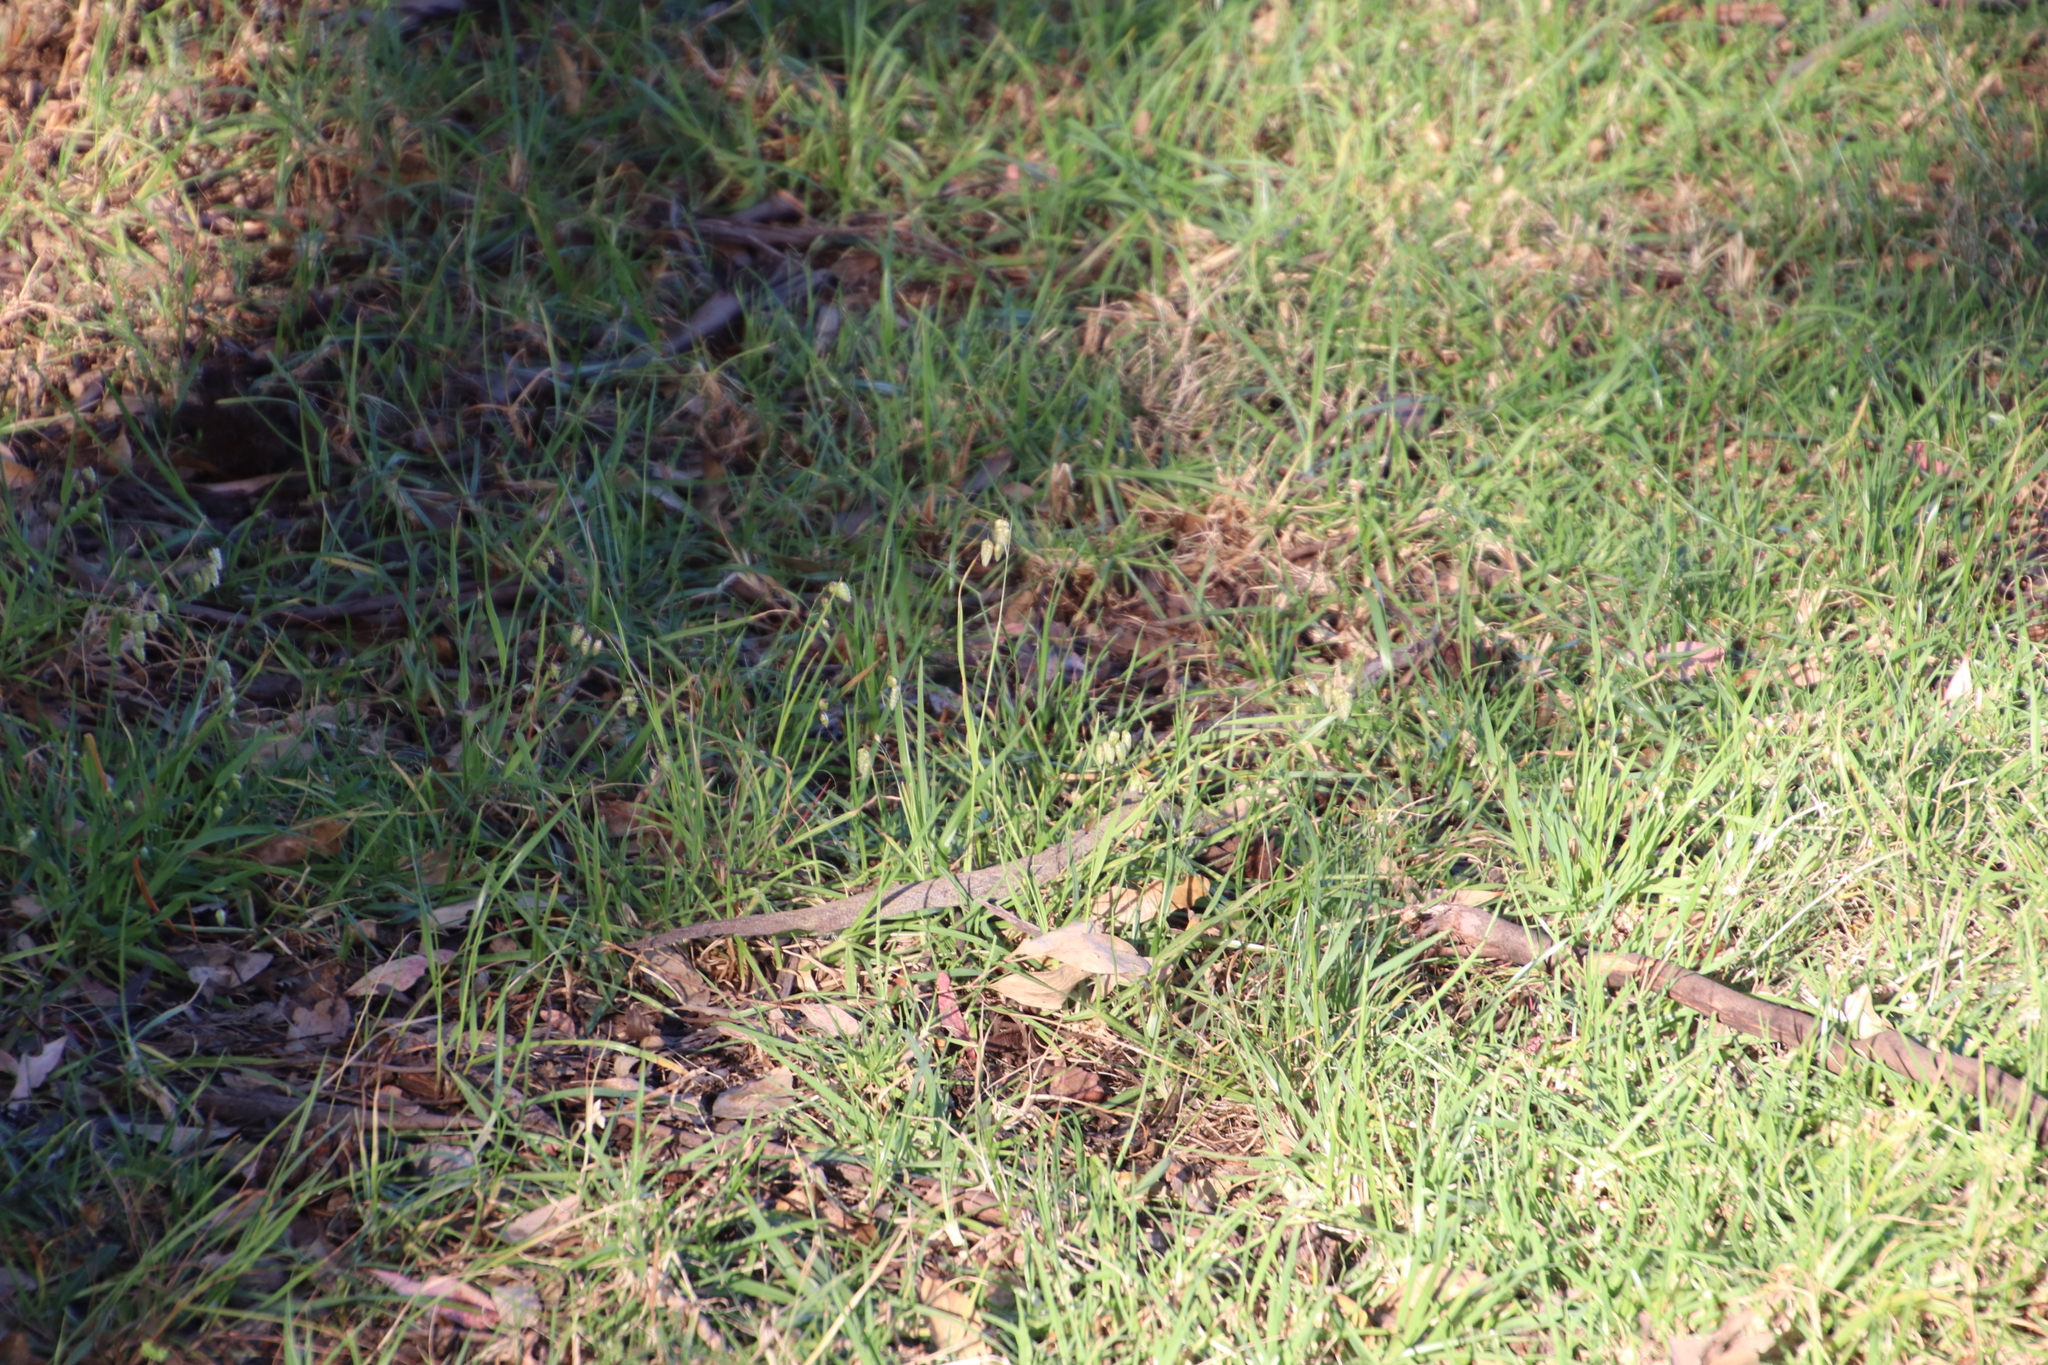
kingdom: Plantae
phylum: Tracheophyta
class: Liliopsida
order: Poales
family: Poaceae
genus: Briza
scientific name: Briza maxima
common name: Big quakinggrass
